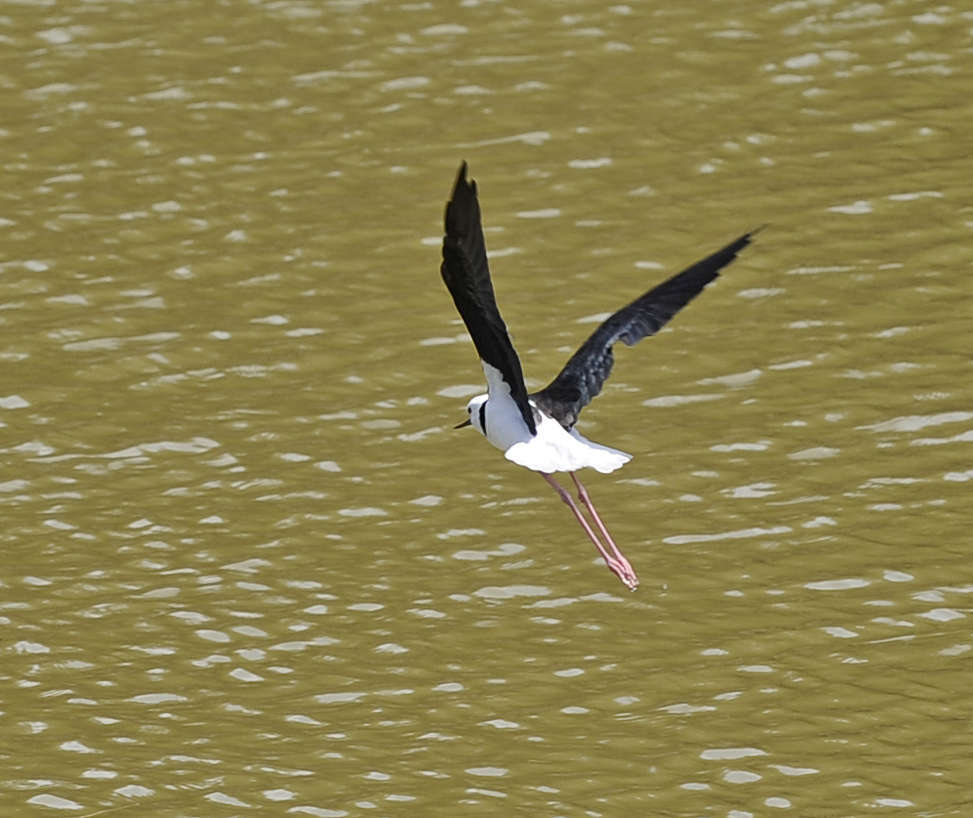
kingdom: Animalia
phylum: Chordata
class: Aves
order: Charadriiformes
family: Recurvirostridae
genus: Himantopus
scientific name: Himantopus leucocephalus
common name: White-headed stilt
